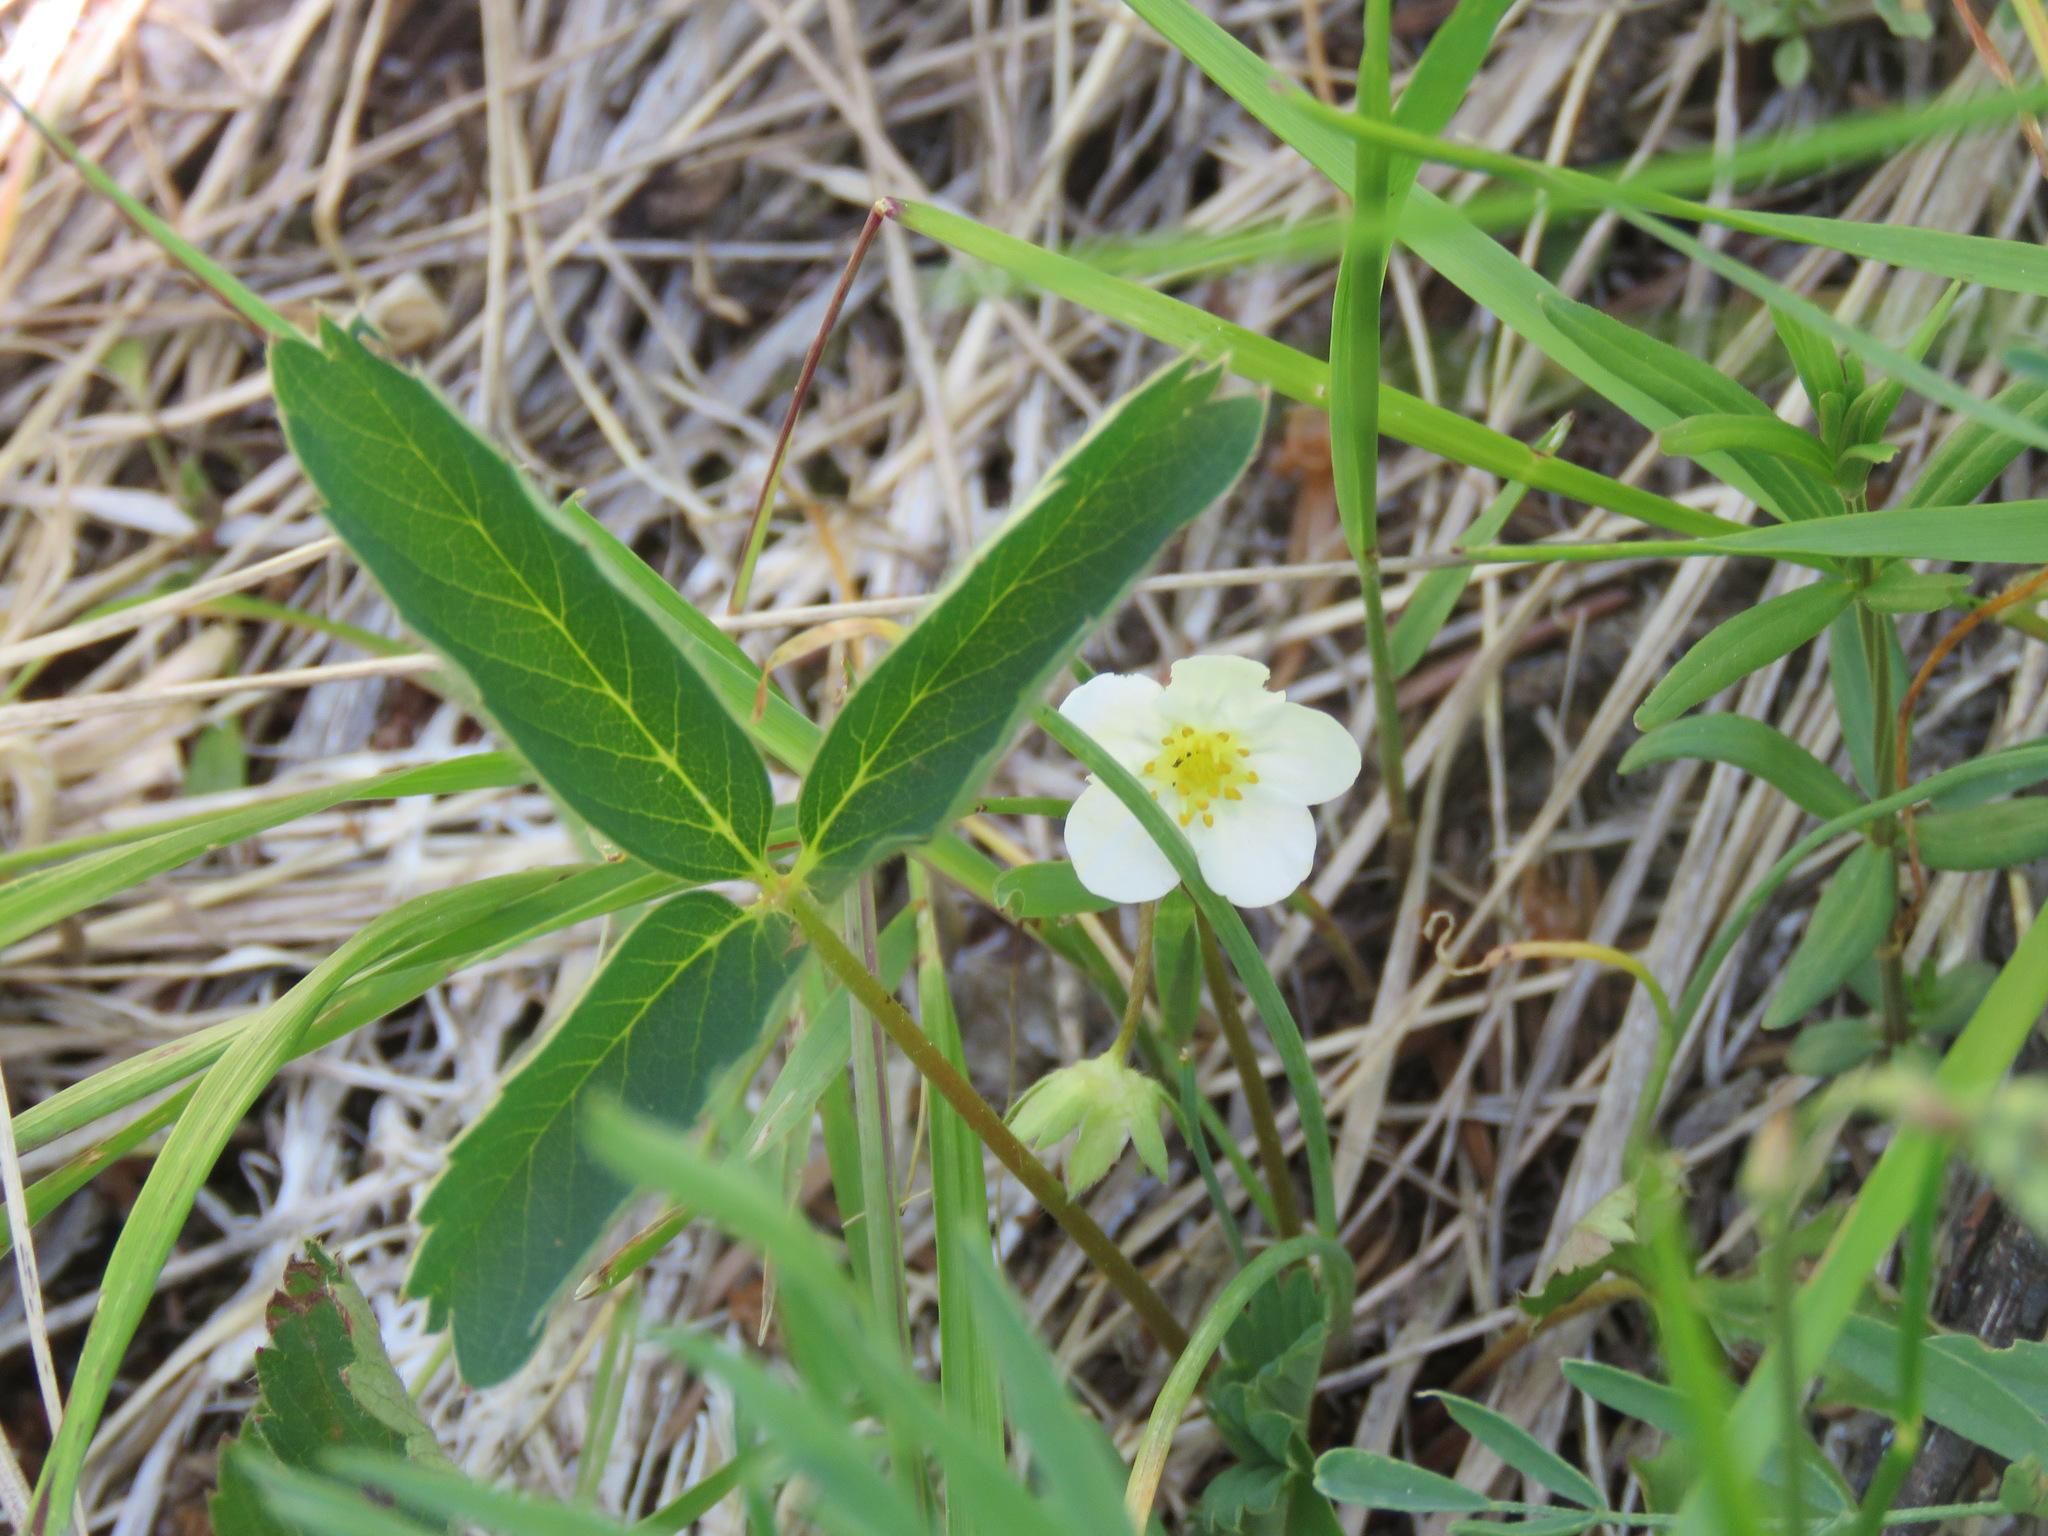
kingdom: Plantae
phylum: Tracheophyta
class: Magnoliopsida
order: Rosales
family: Rosaceae
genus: Fragaria
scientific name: Fragaria virginiana
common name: Thickleaved wild strawberry
